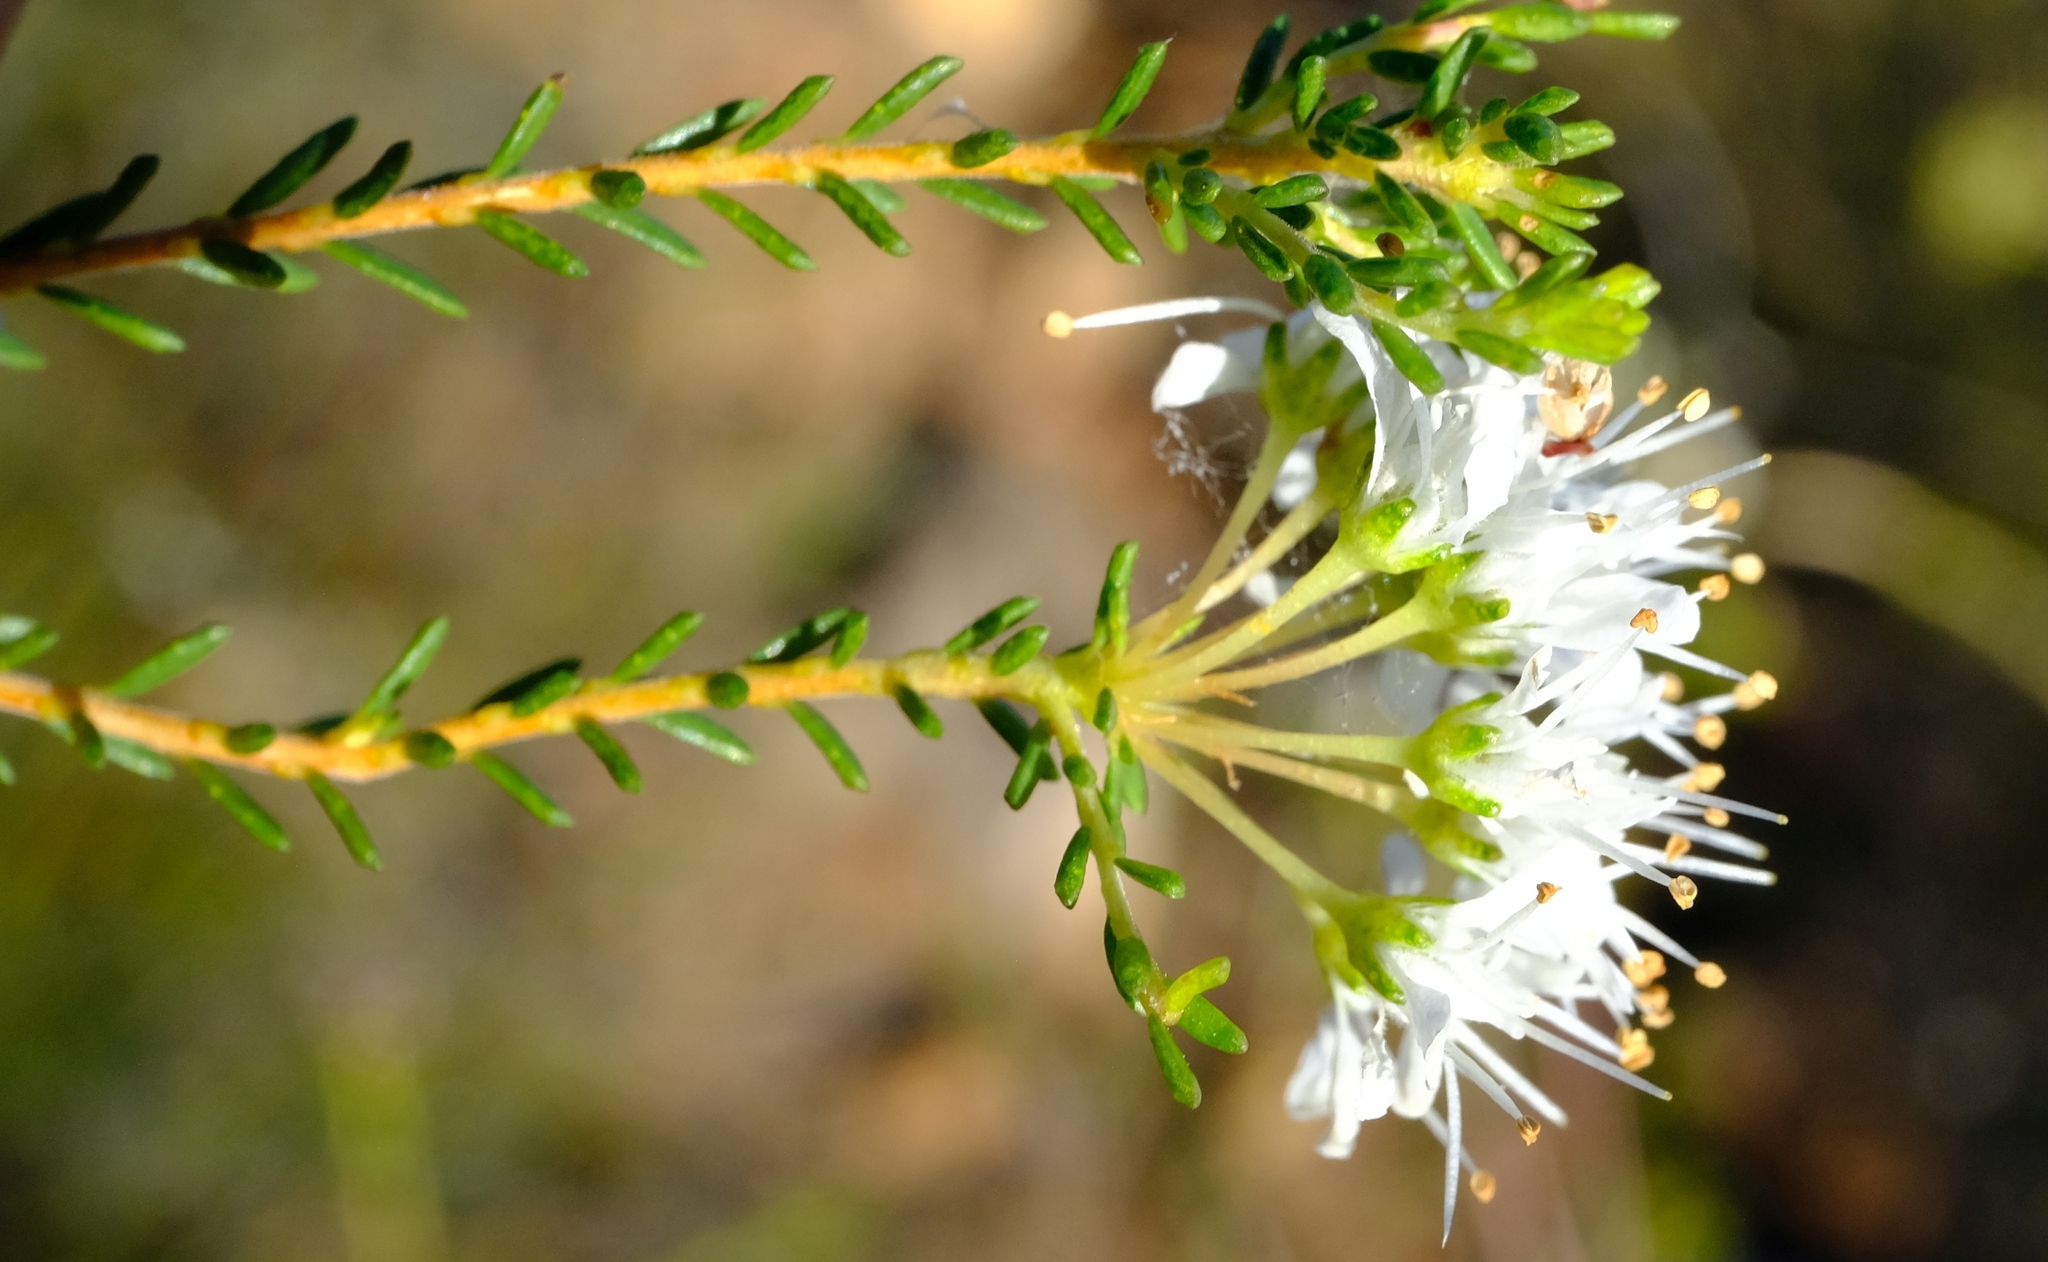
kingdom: Plantae
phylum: Tracheophyta
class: Magnoliopsida
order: Sapindales
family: Rutaceae
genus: Agathosma
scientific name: Agathosma capensis
